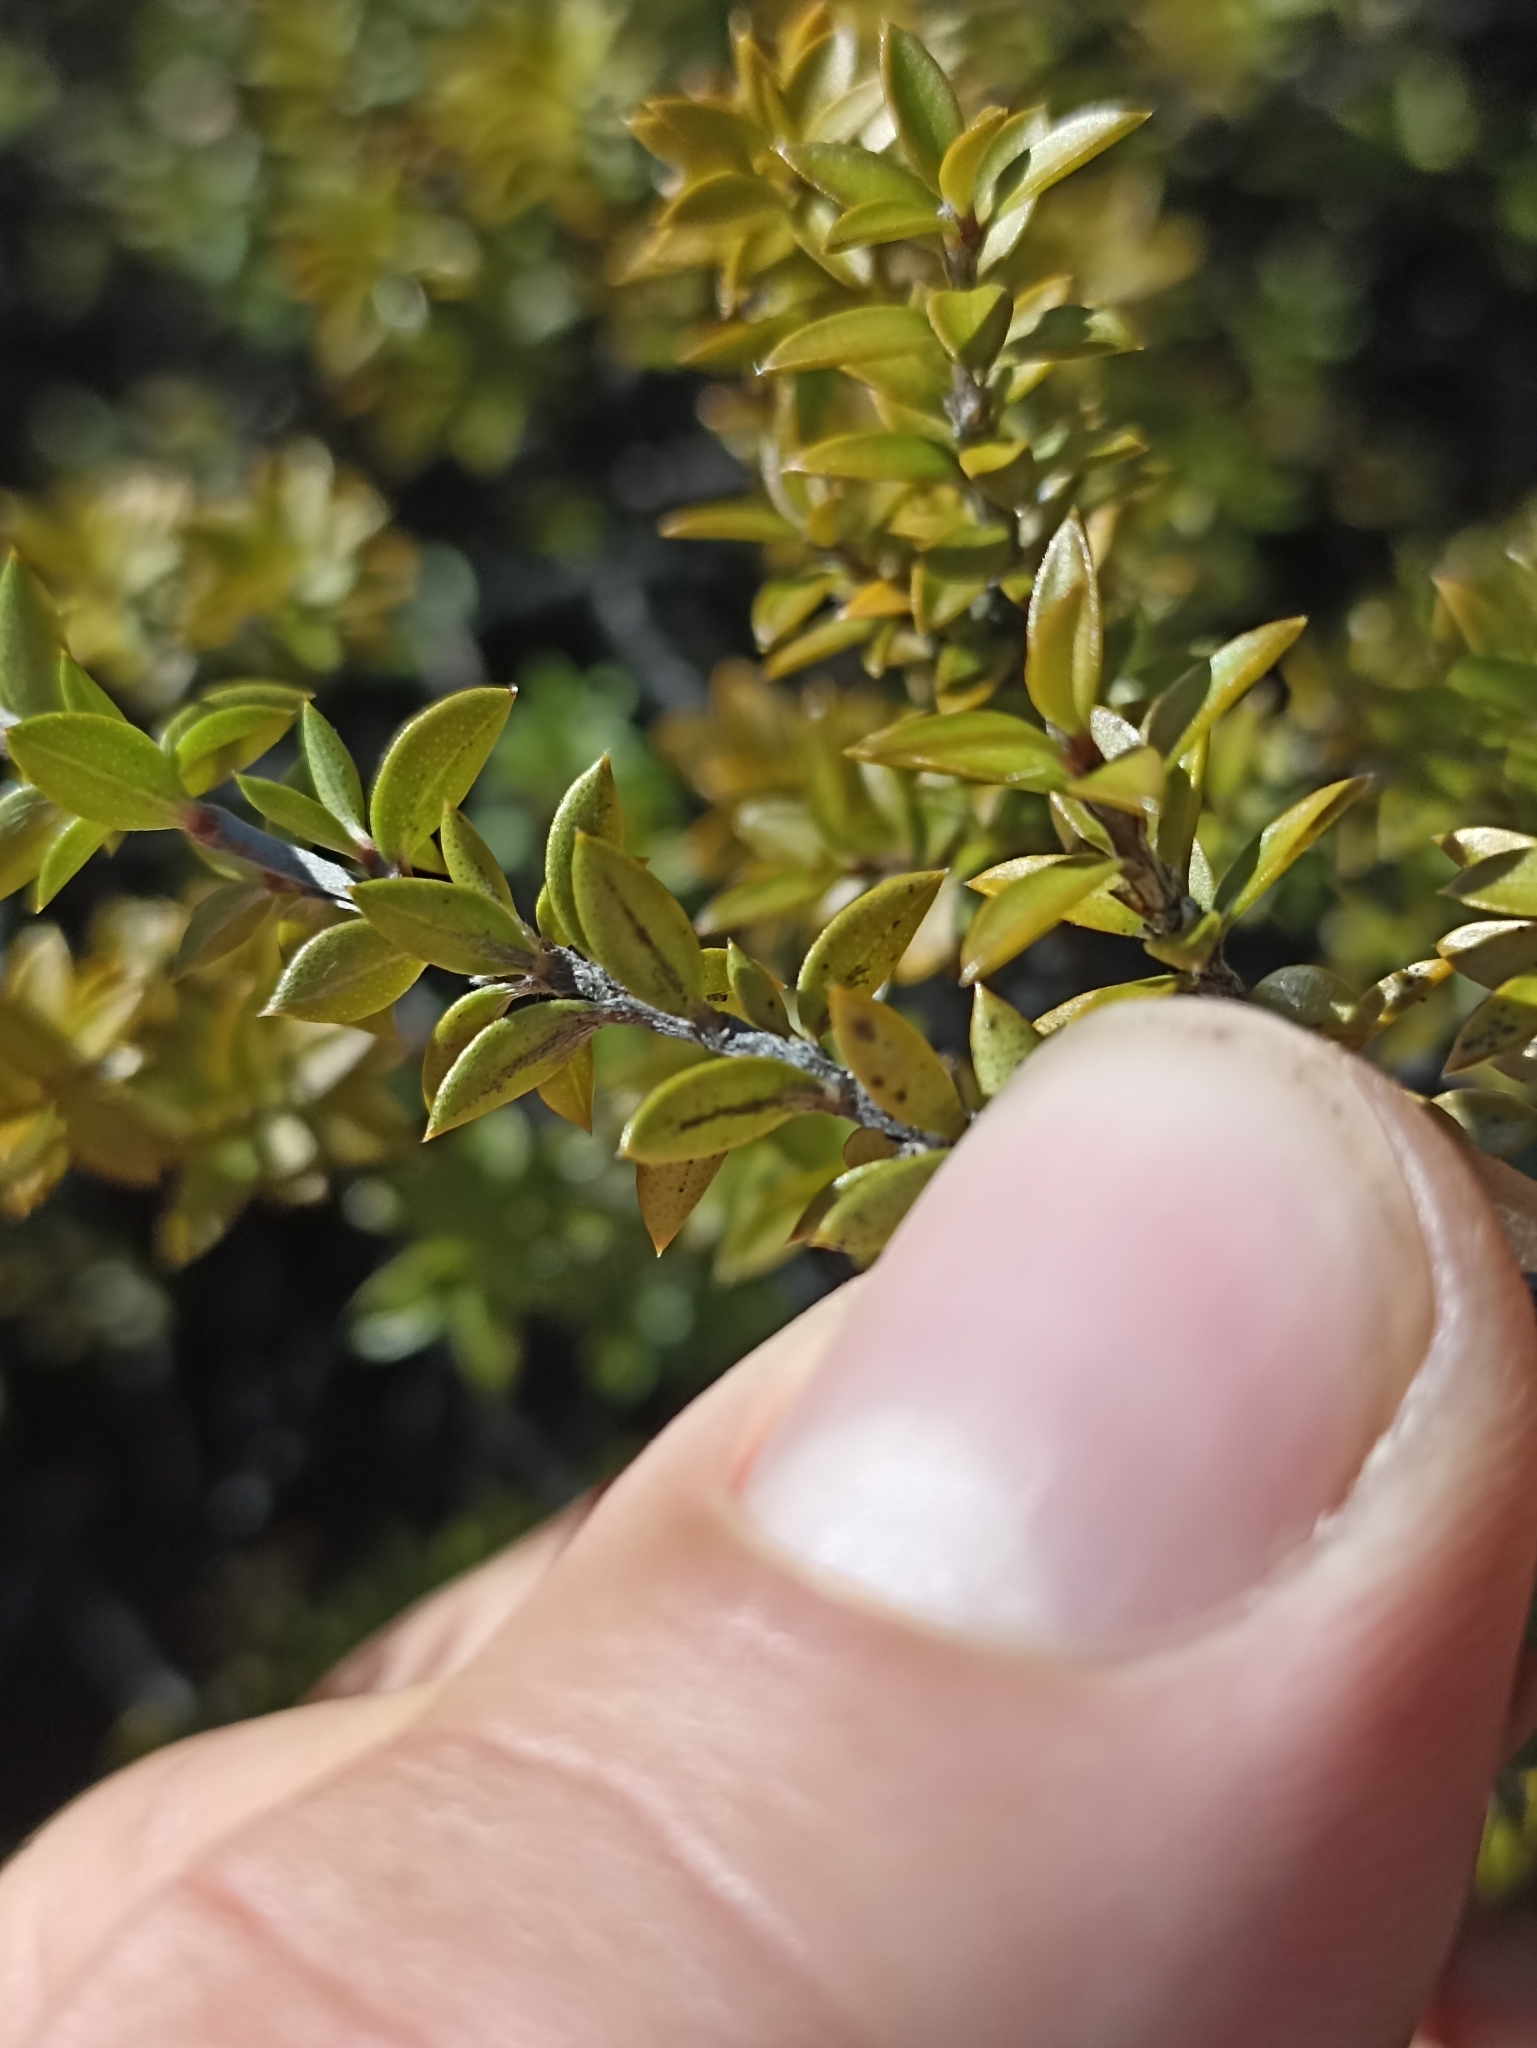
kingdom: Plantae
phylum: Tracheophyta
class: Magnoliopsida
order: Myrtales
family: Myrtaceae
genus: Leptospermum
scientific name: Leptospermum scoparium
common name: Broom tea-tree
